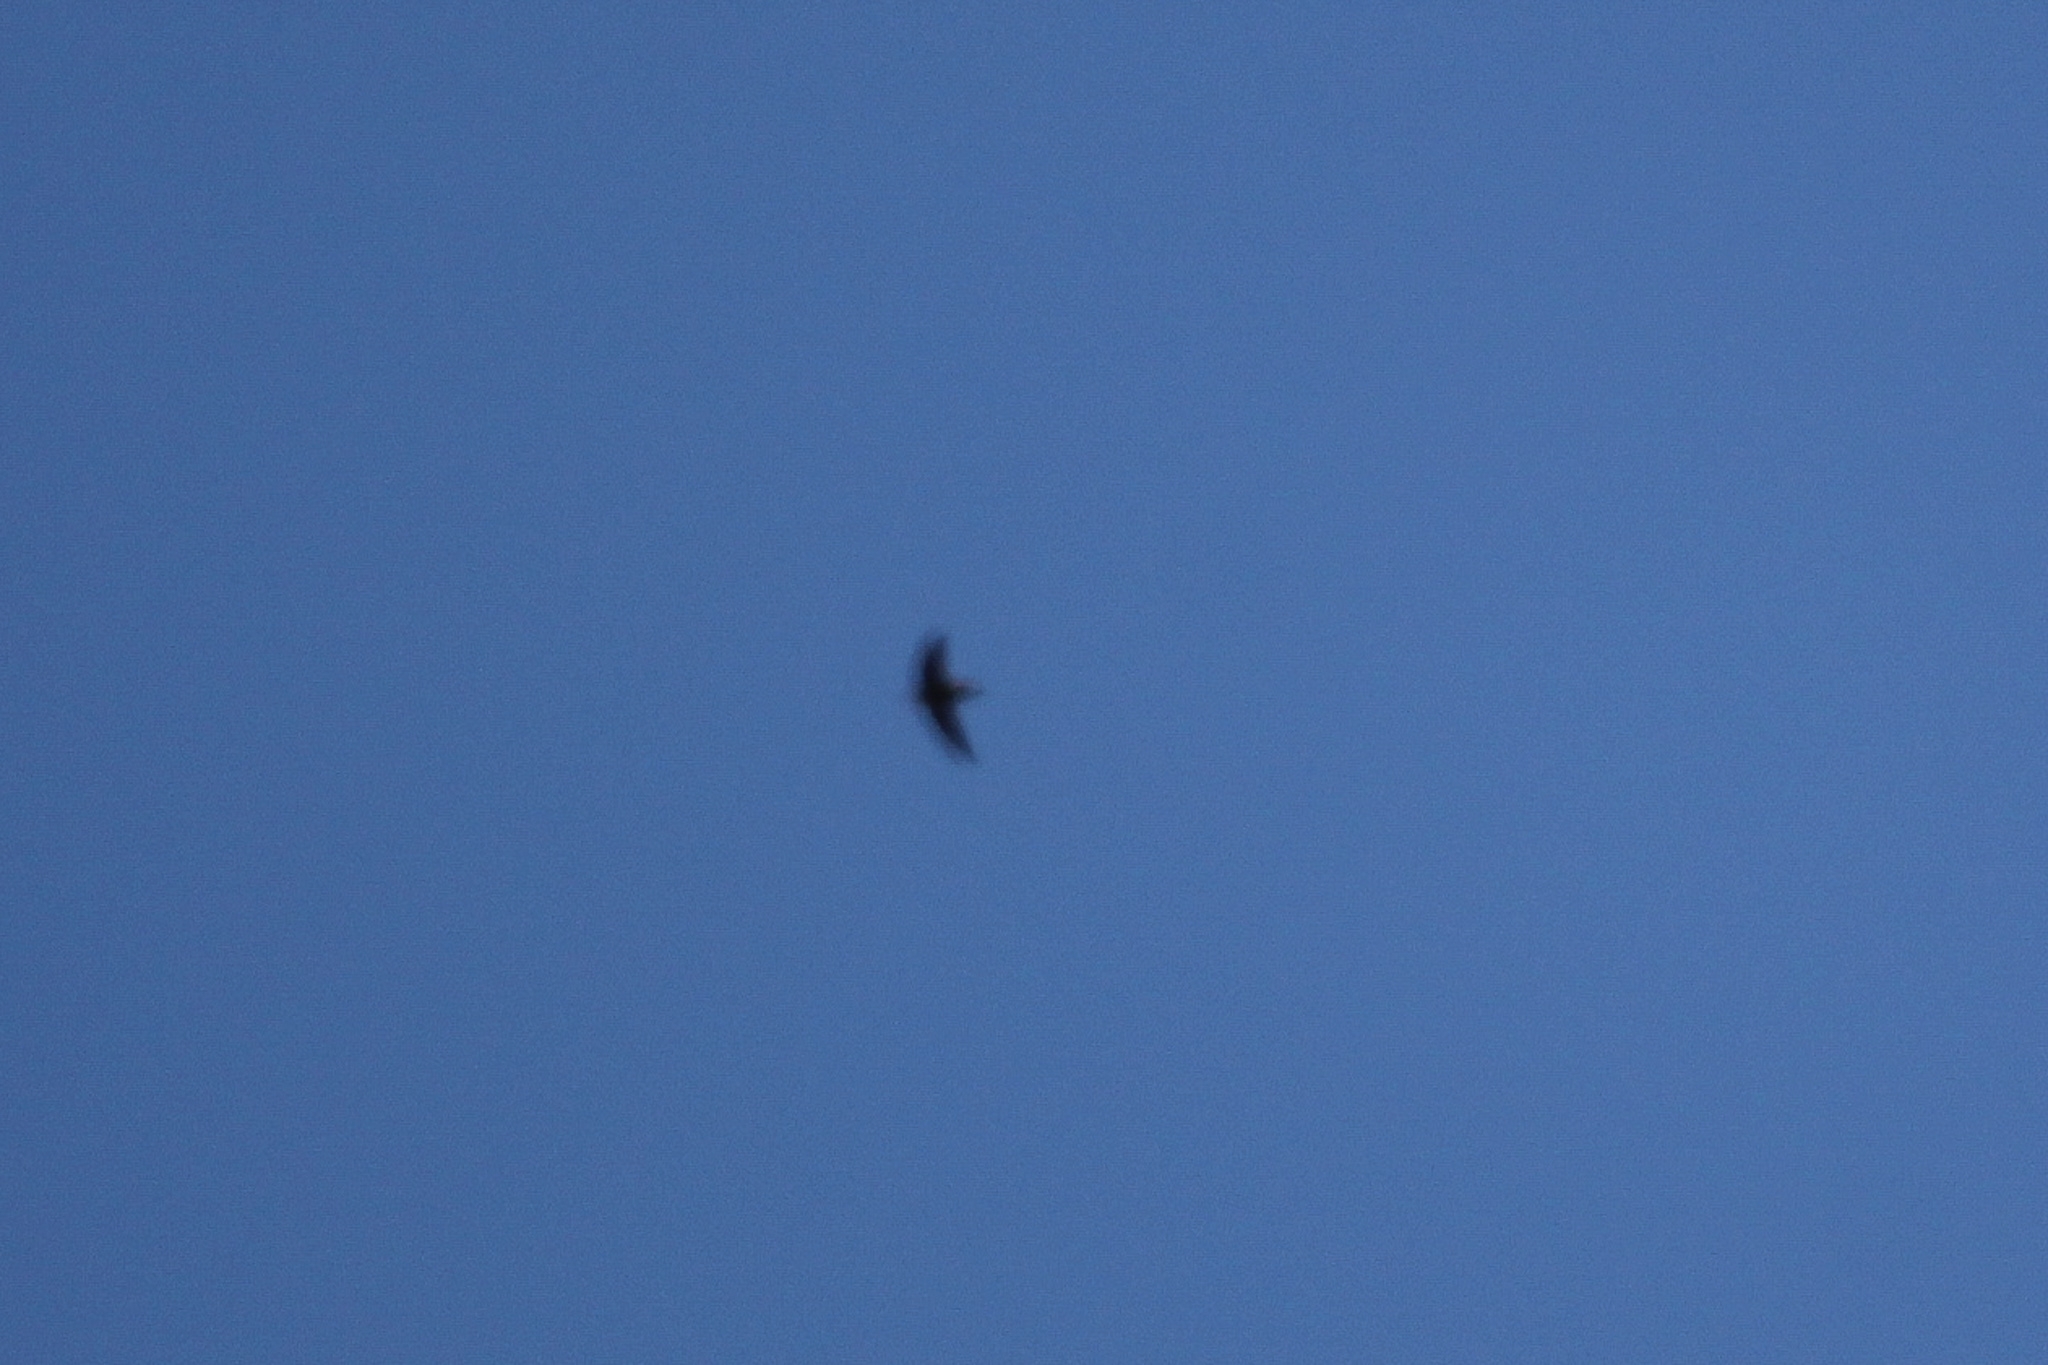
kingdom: Animalia
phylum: Chordata
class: Aves
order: Apodiformes
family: Apodidae
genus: Chaetura
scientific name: Chaetura pelagica
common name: Chimney swift
